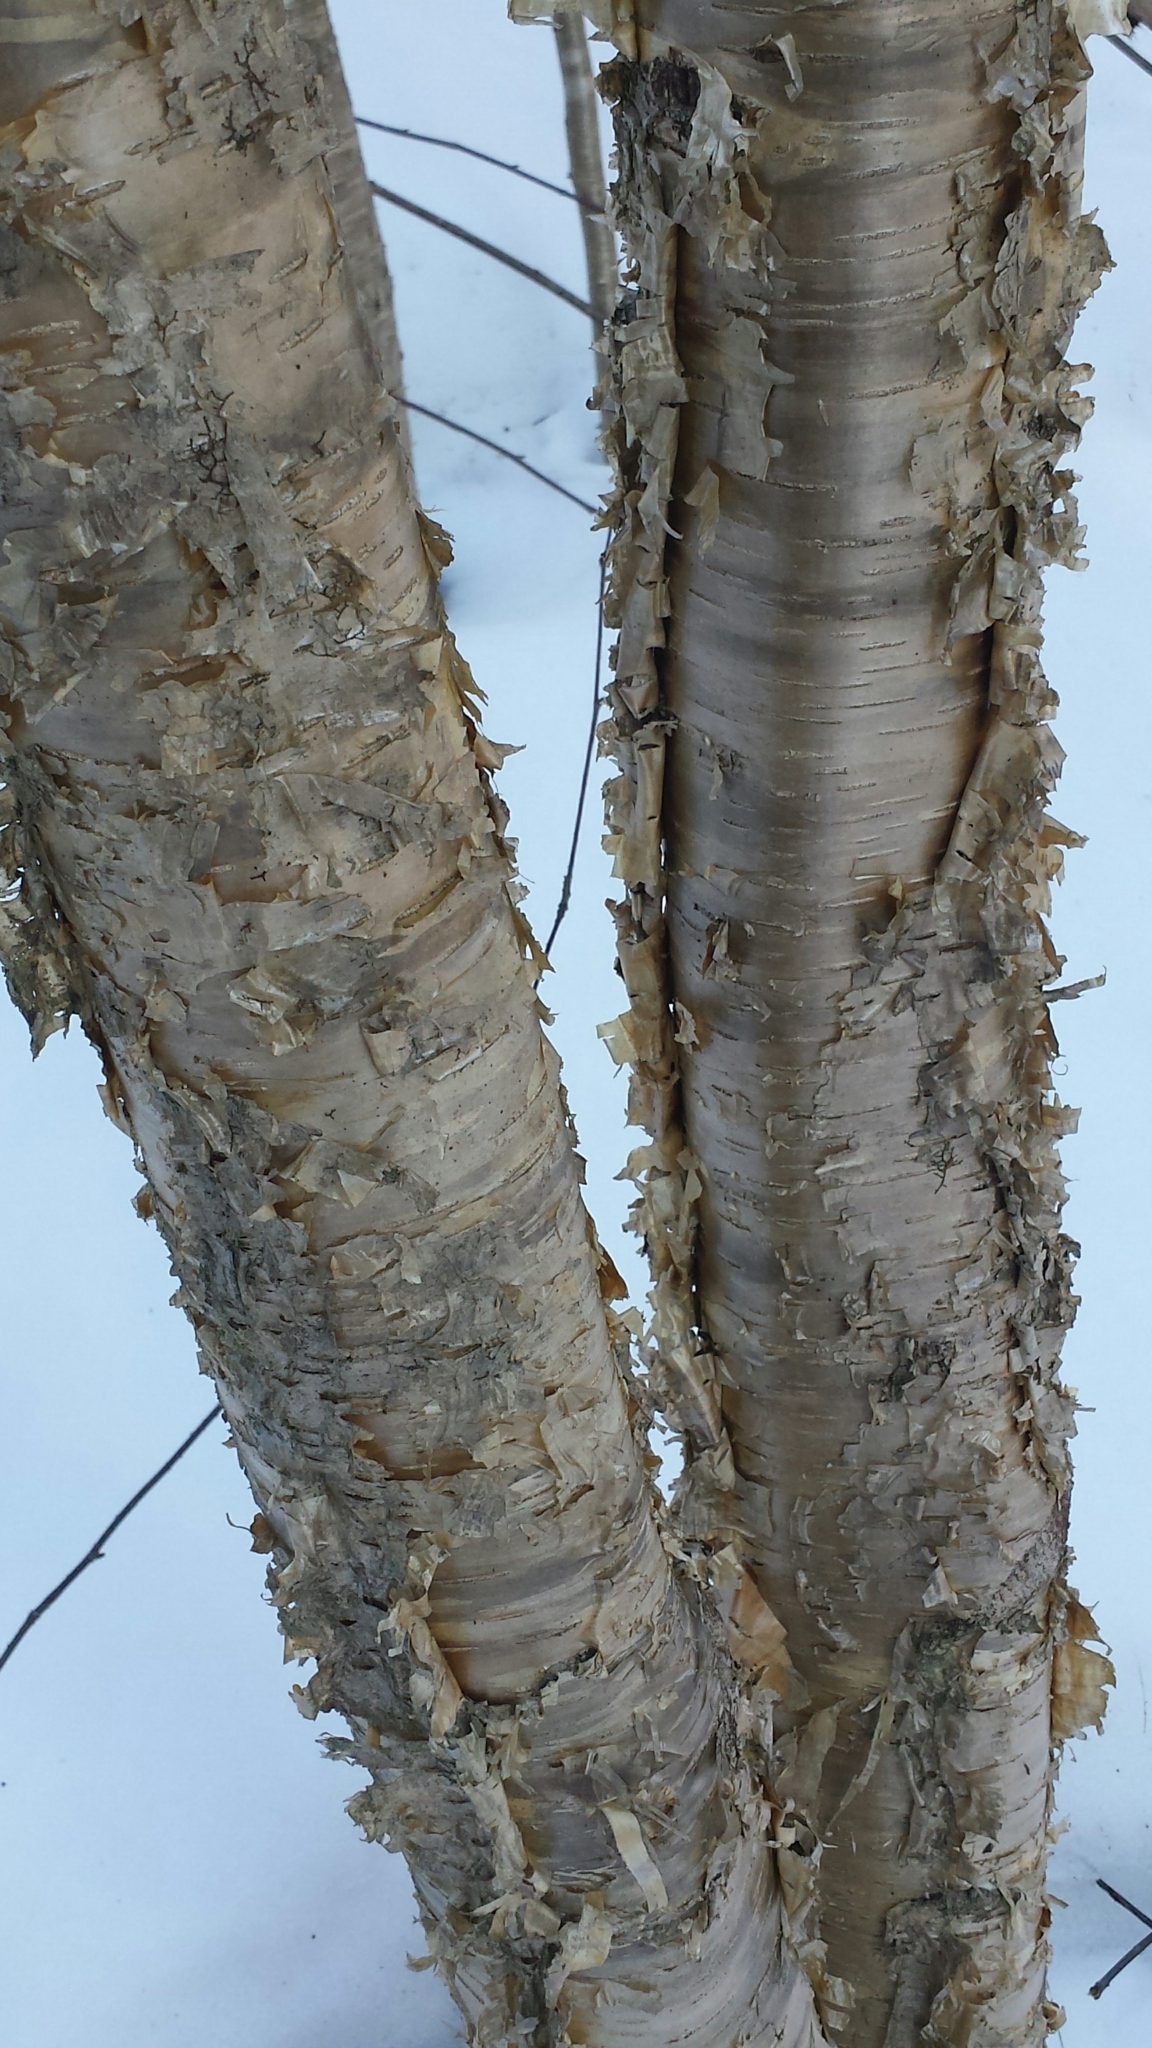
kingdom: Plantae
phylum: Tracheophyta
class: Magnoliopsida
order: Fagales
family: Betulaceae
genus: Betula
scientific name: Betula alleghaniensis
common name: Yellow birch
